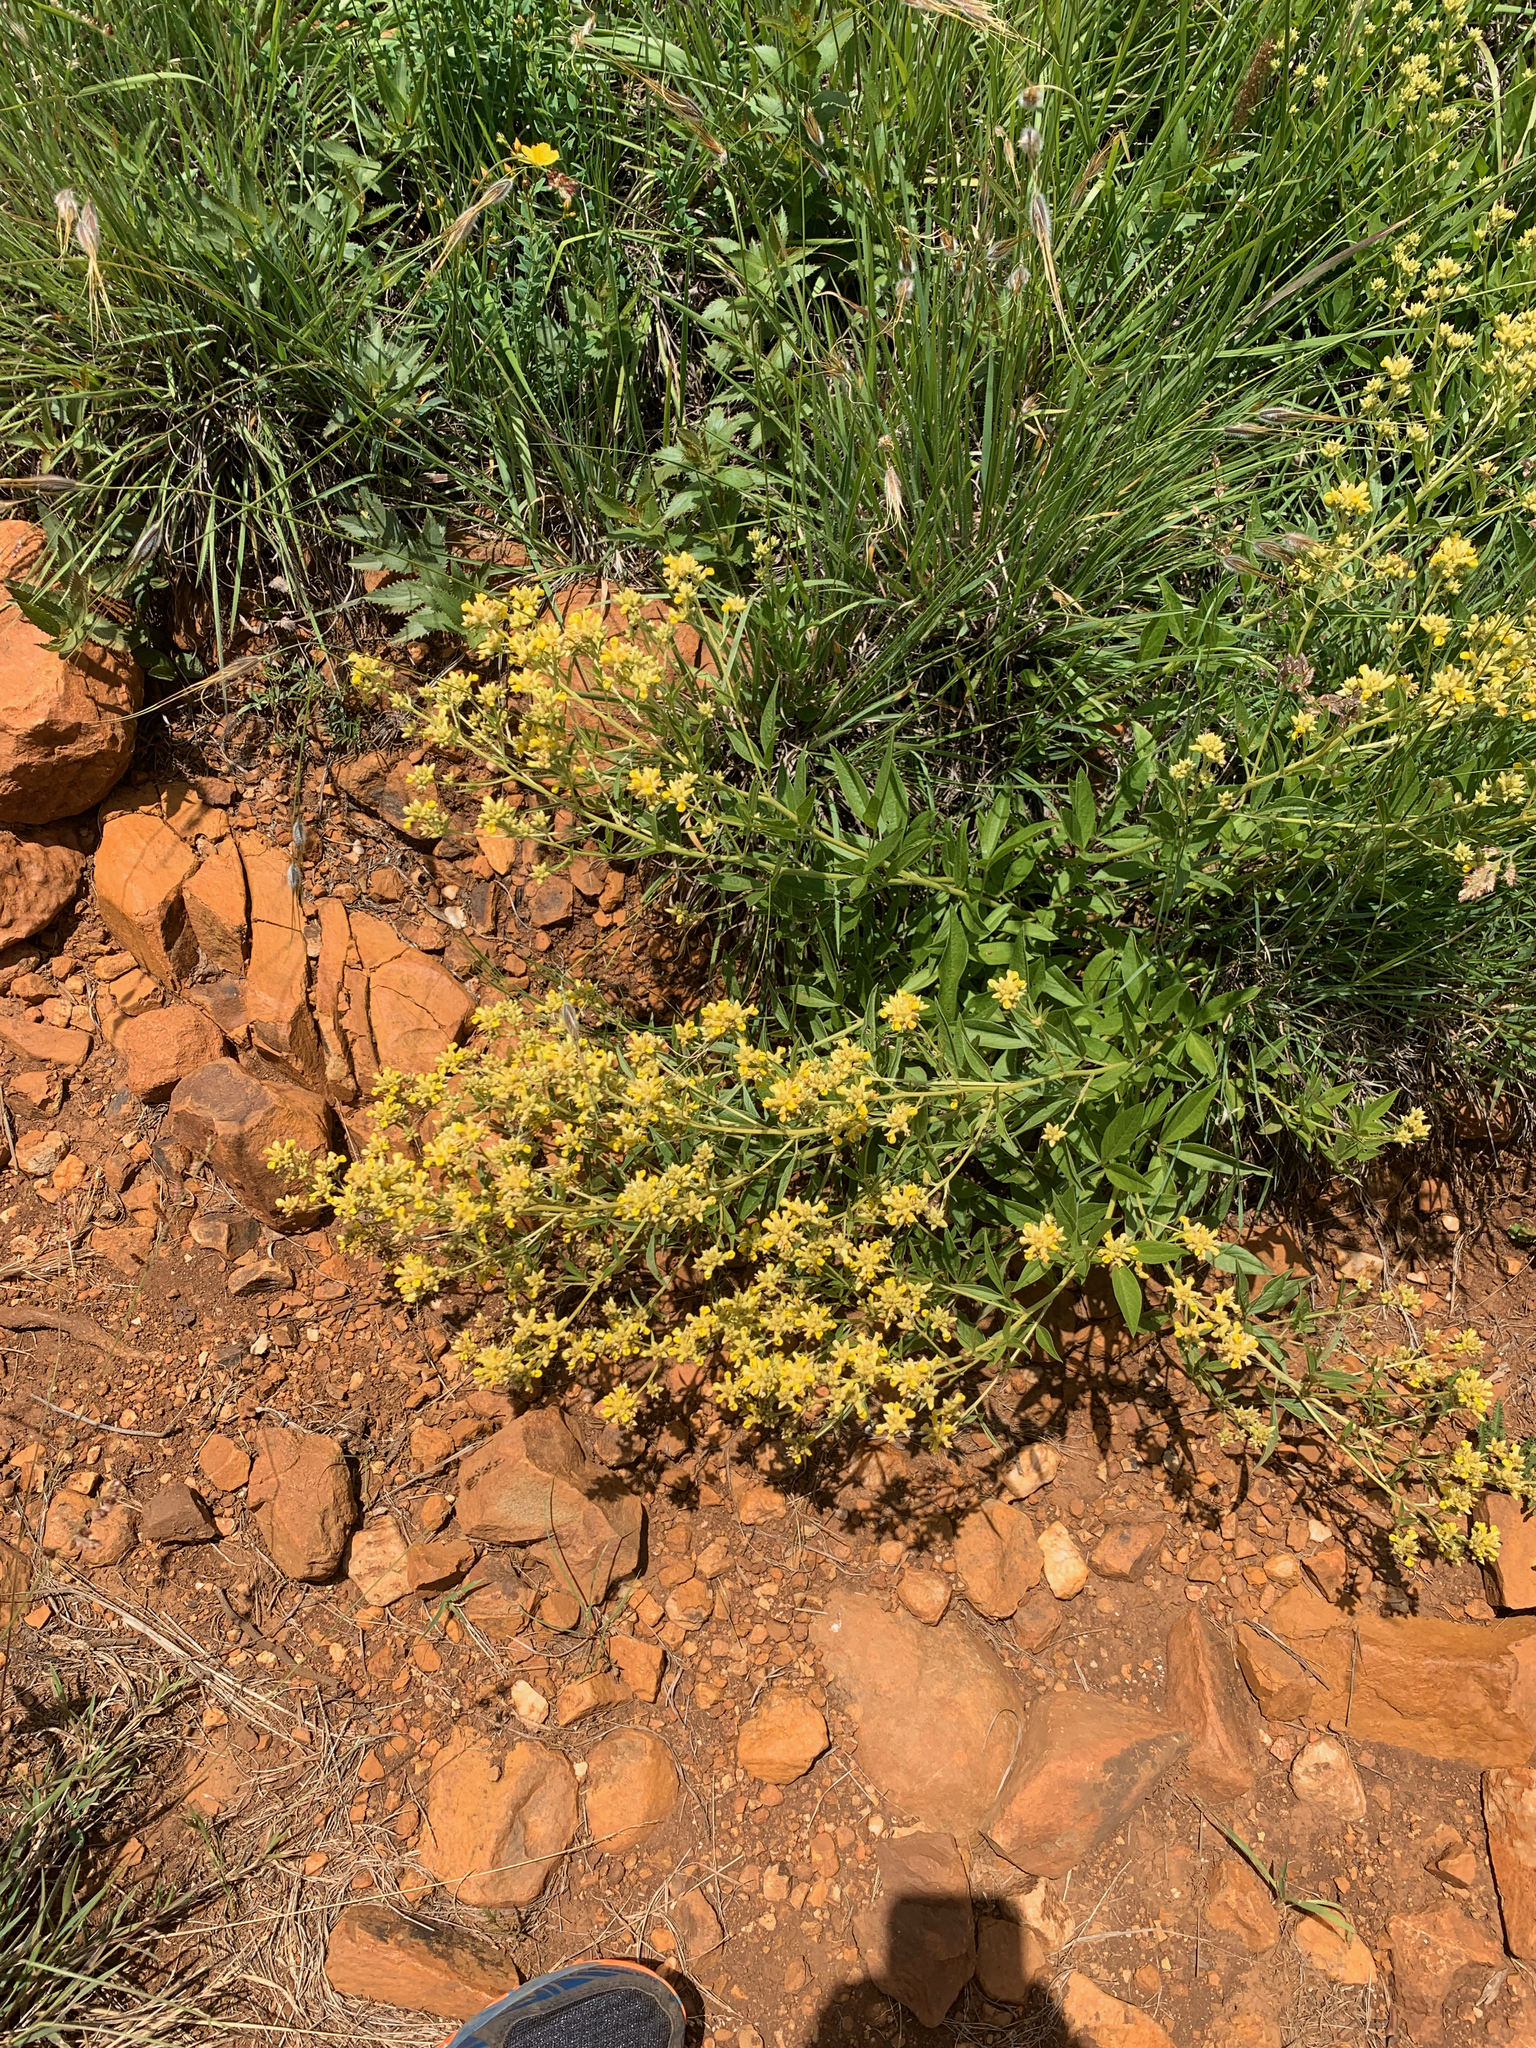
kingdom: Plantae
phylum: Tracheophyta
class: Magnoliopsida
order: Fabales
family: Fabaceae
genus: Pearsonia
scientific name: Pearsonia cajanifolia
